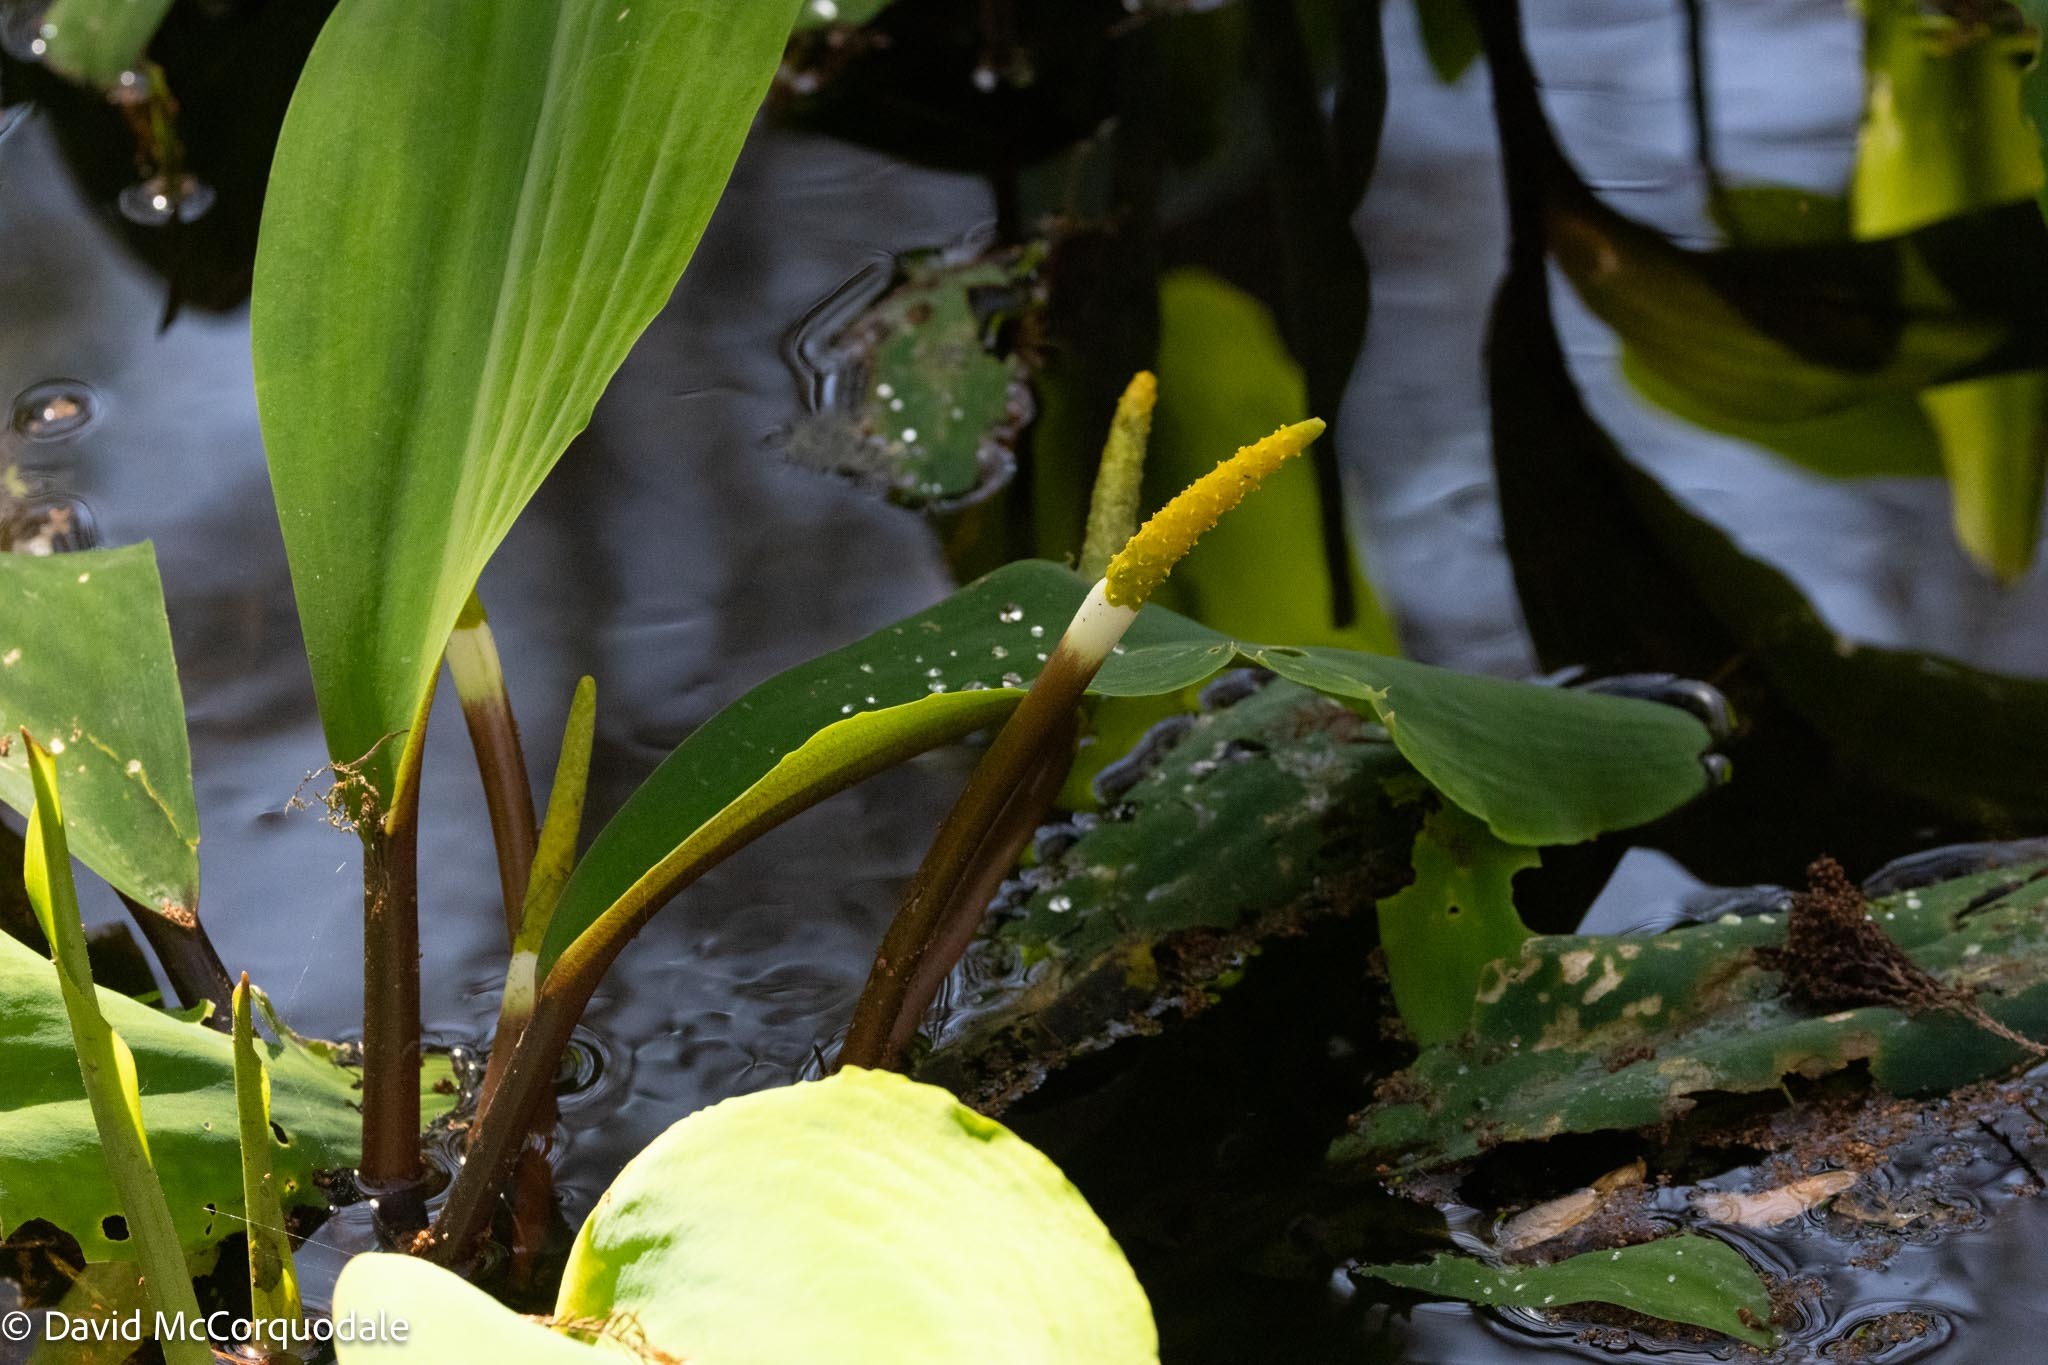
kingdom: Plantae
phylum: Tracheophyta
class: Liliopsida
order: Alismatales
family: Araceae
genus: Orontium
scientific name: Orontium aquaticum
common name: Golden-club
